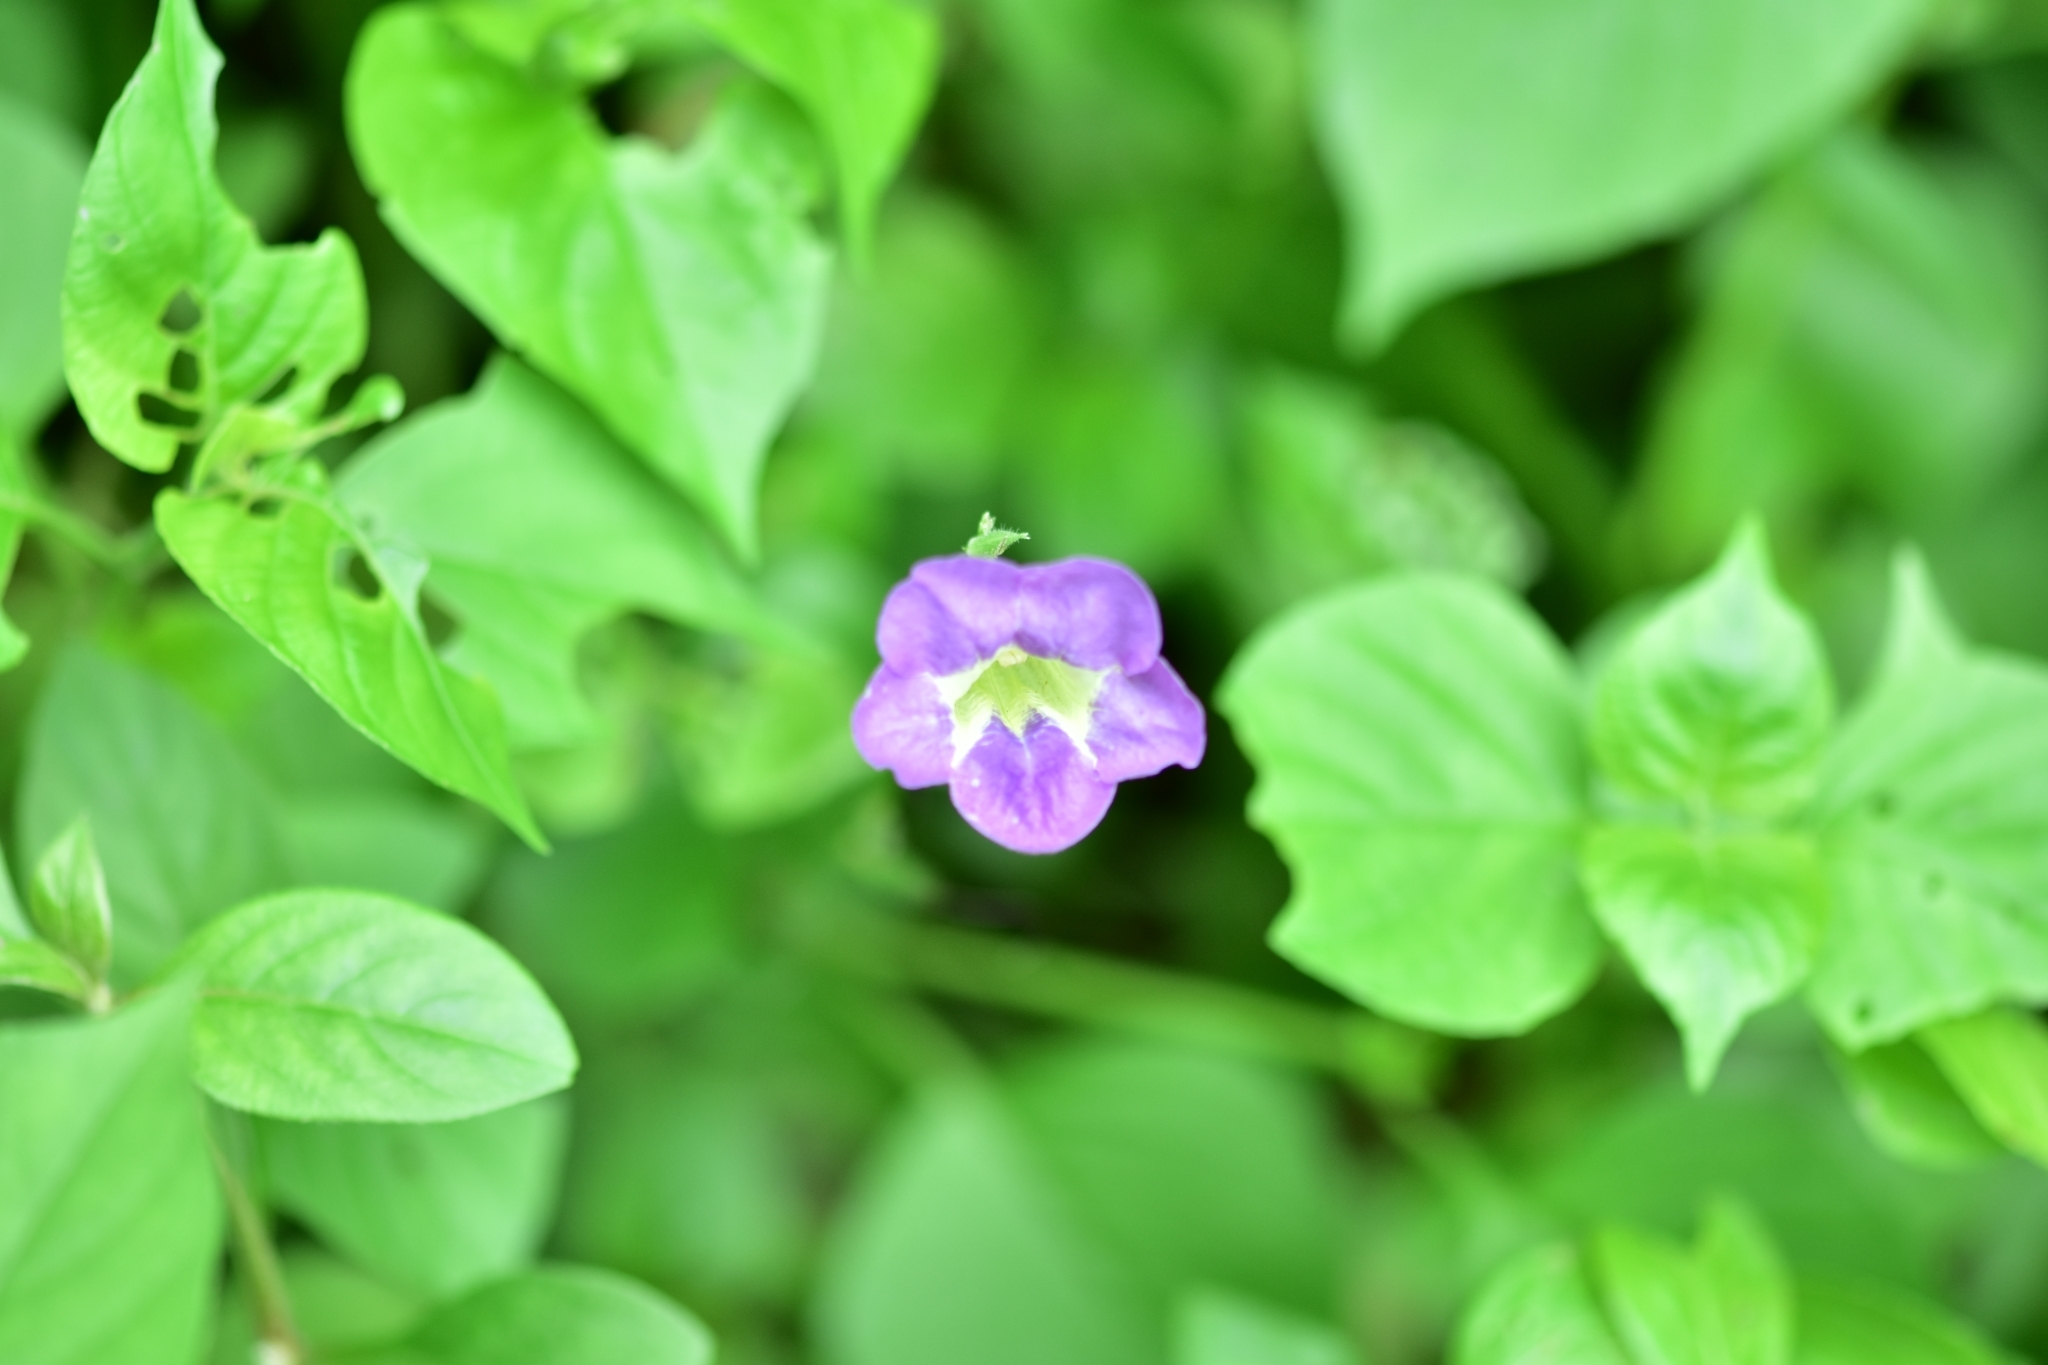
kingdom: Plantae
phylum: Tracheophyta
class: Magnoliopsida
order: Lamiales
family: Acanthaceae
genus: Asystasia
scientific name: Asystasia gangetica
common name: Chinese violet
